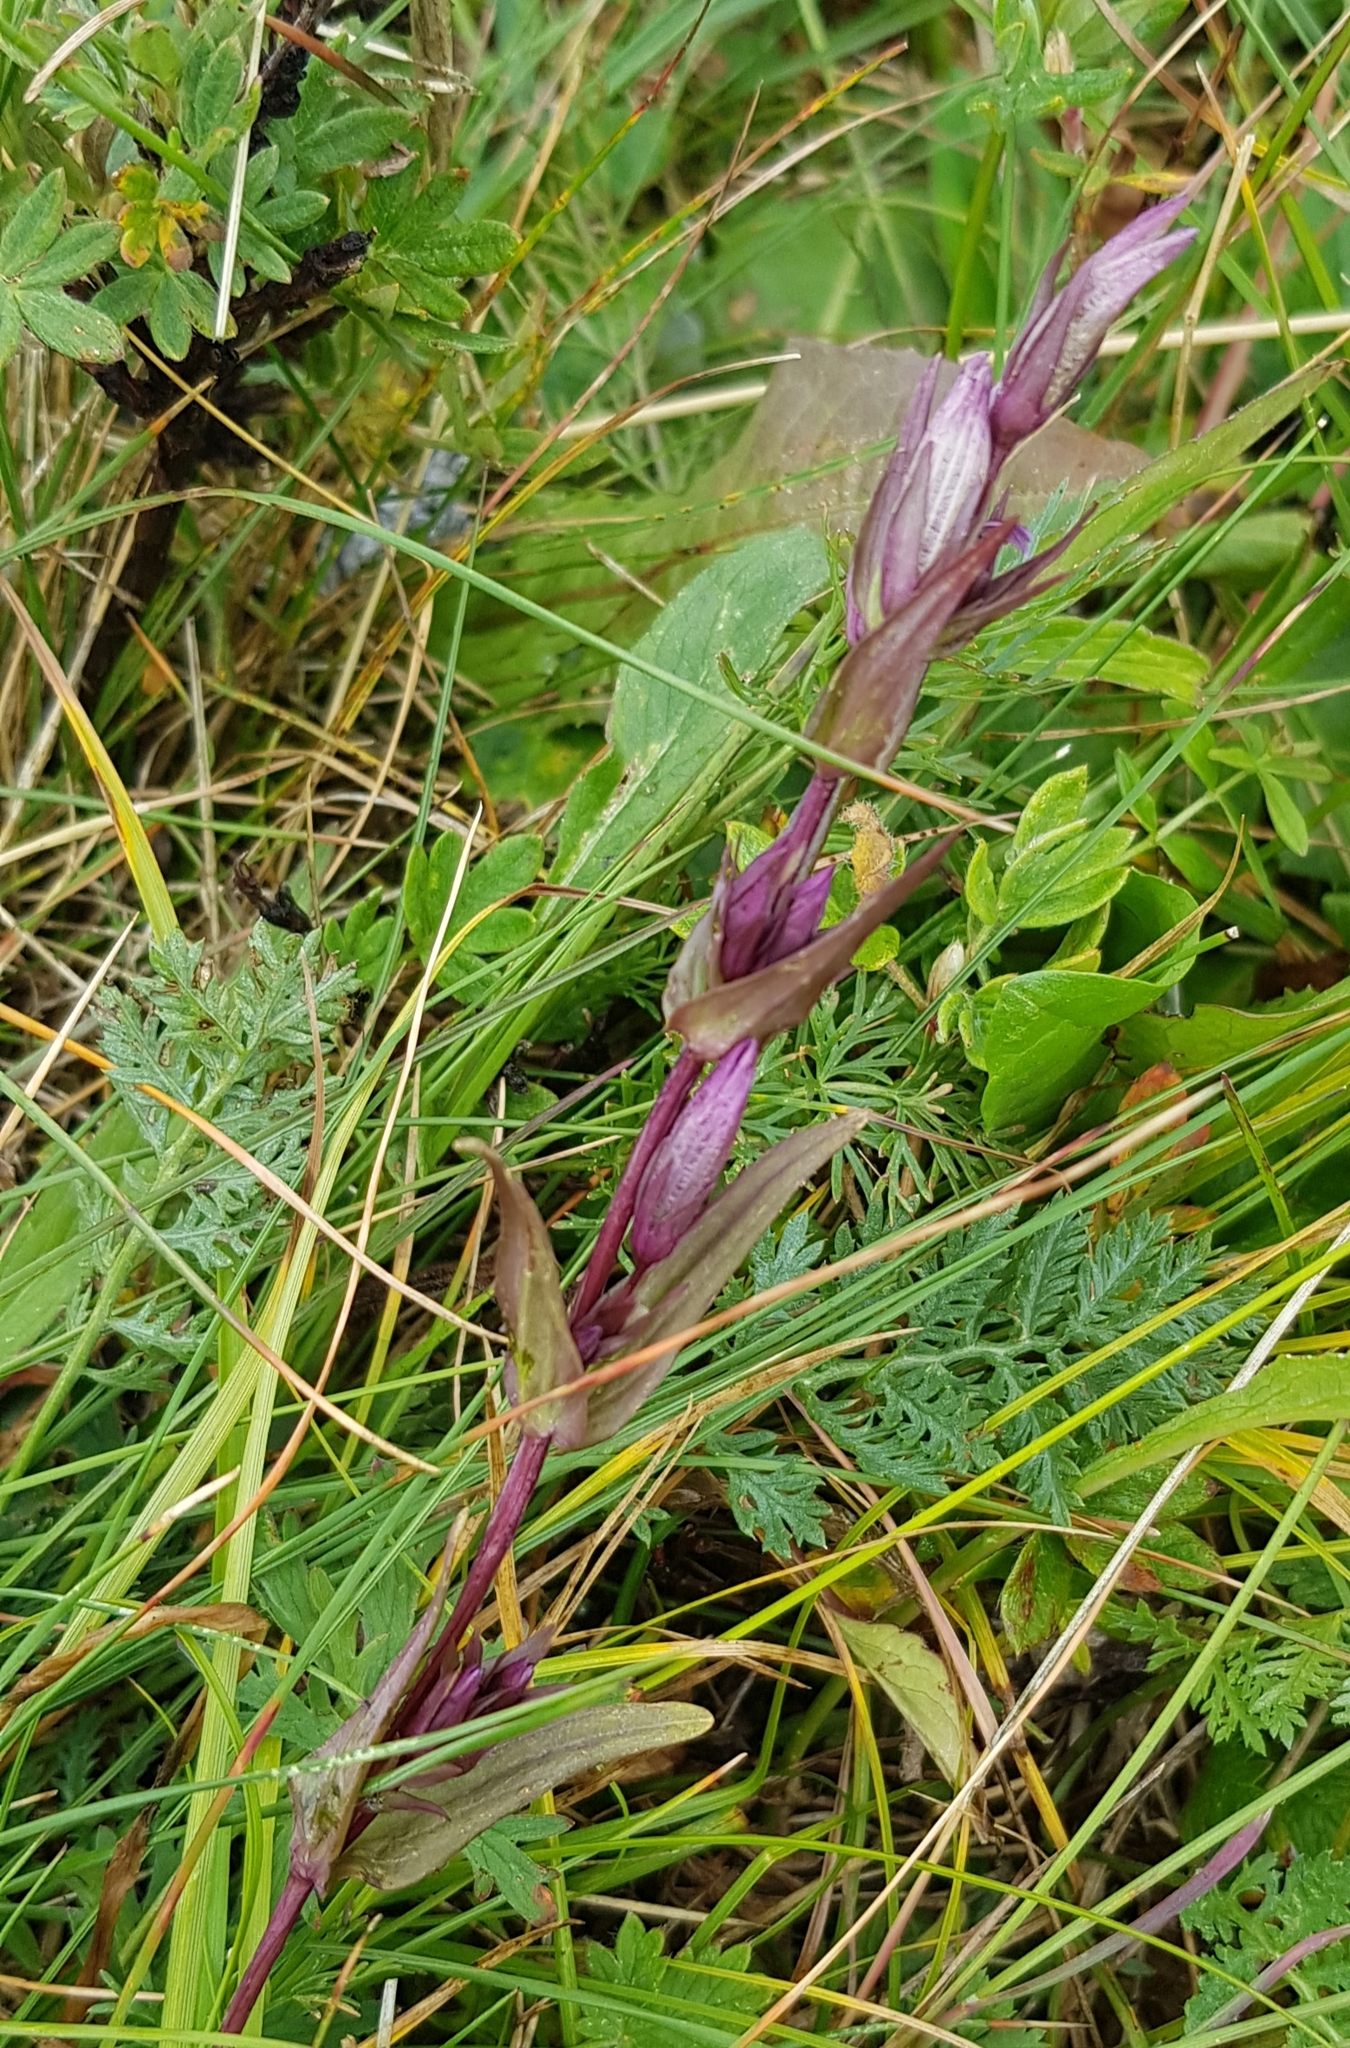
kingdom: Plantae
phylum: Tracheophyta
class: Magnoliopsida
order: Gentianales
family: Gentianaceae
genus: Gentianella
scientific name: Gentianella amarella
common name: Autumn gentian
